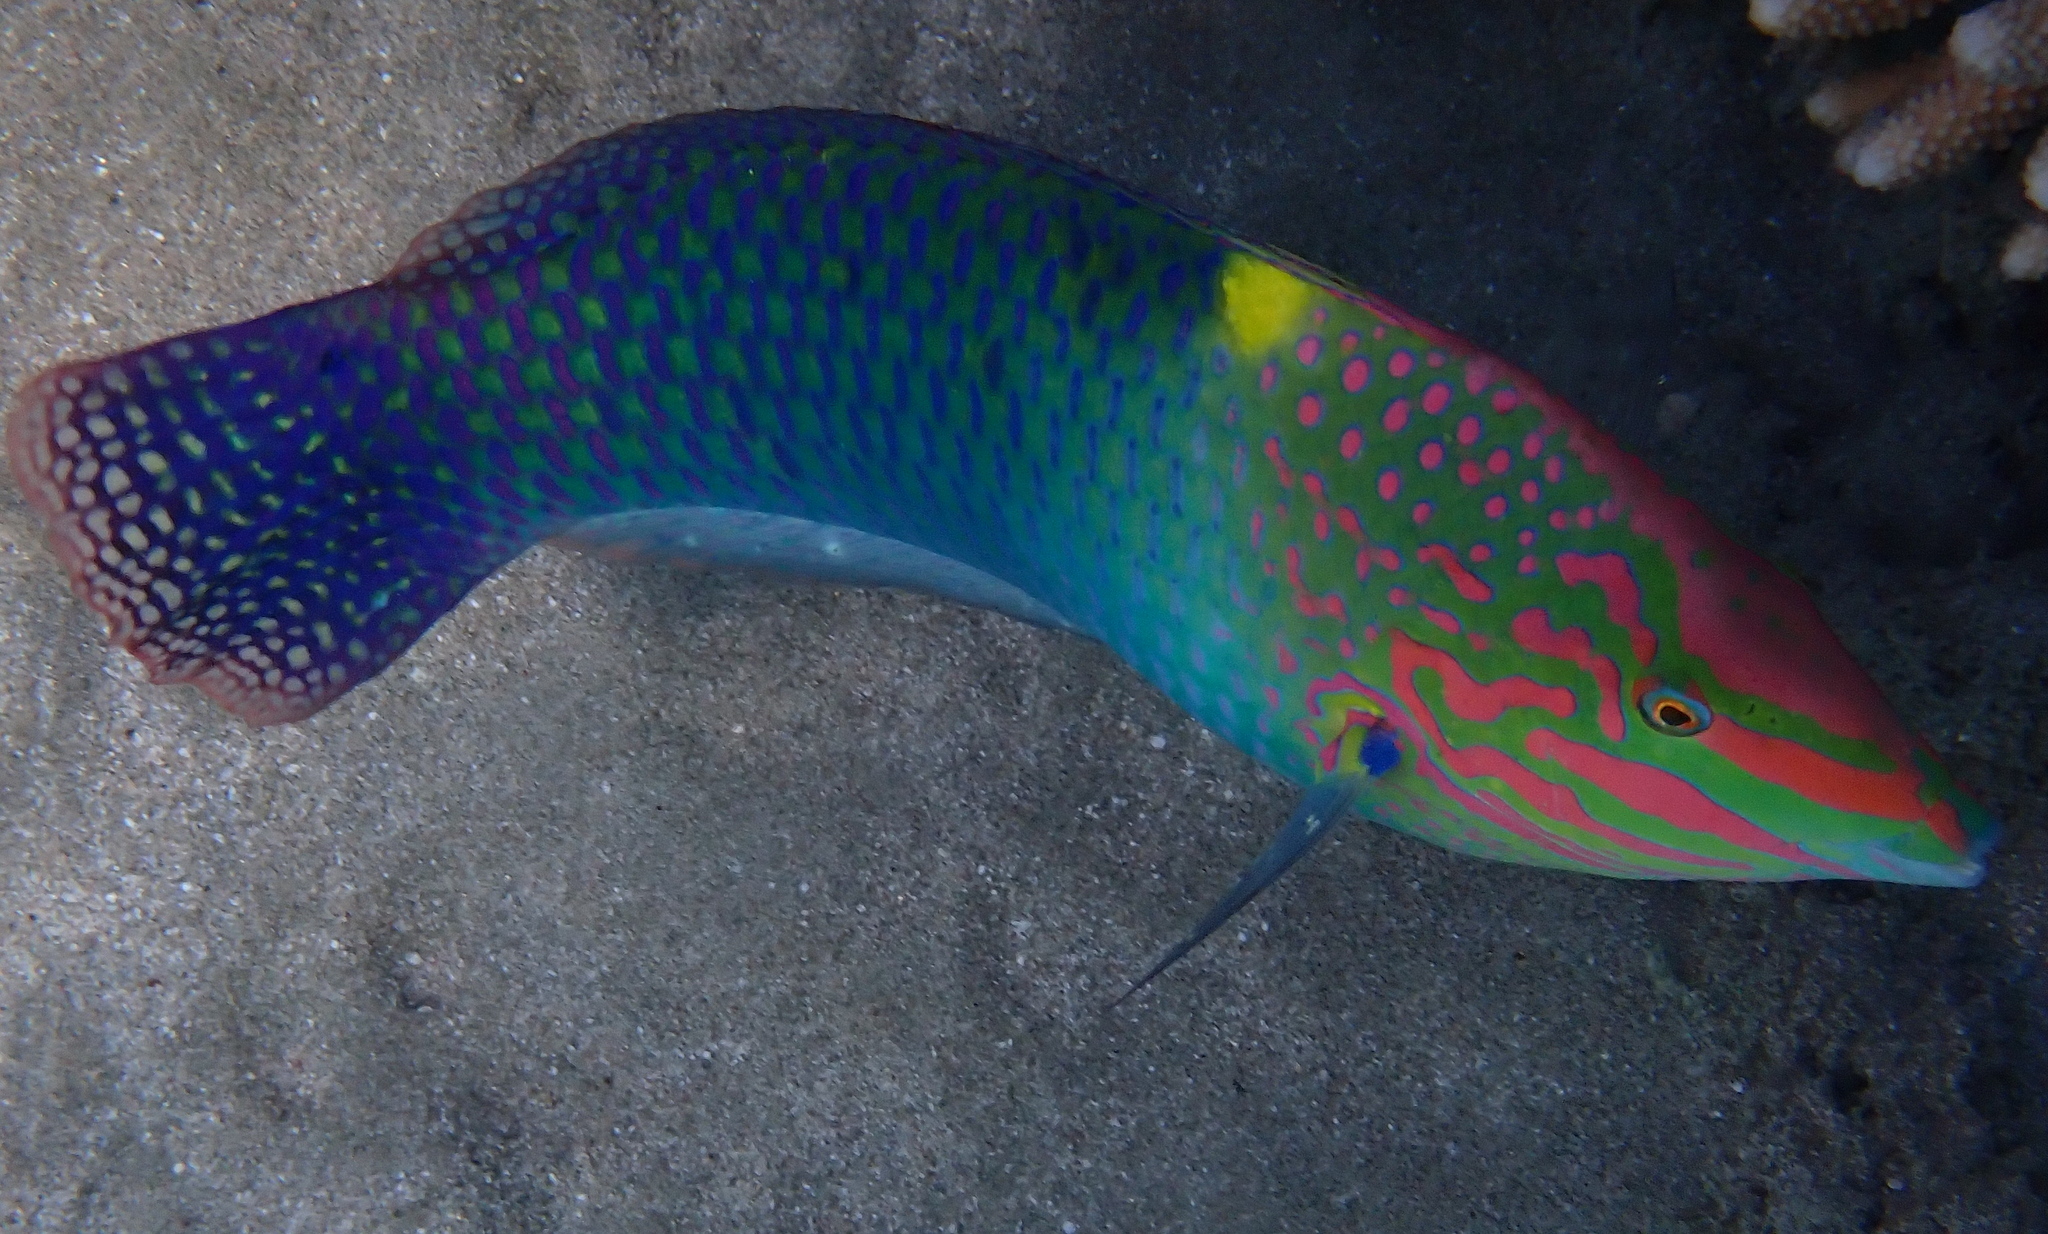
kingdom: Animalia
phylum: Chordata
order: Perciformes
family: Labridae
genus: Halichoeres
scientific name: Halichoeres hortulanus
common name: Checkerboard wrasse
